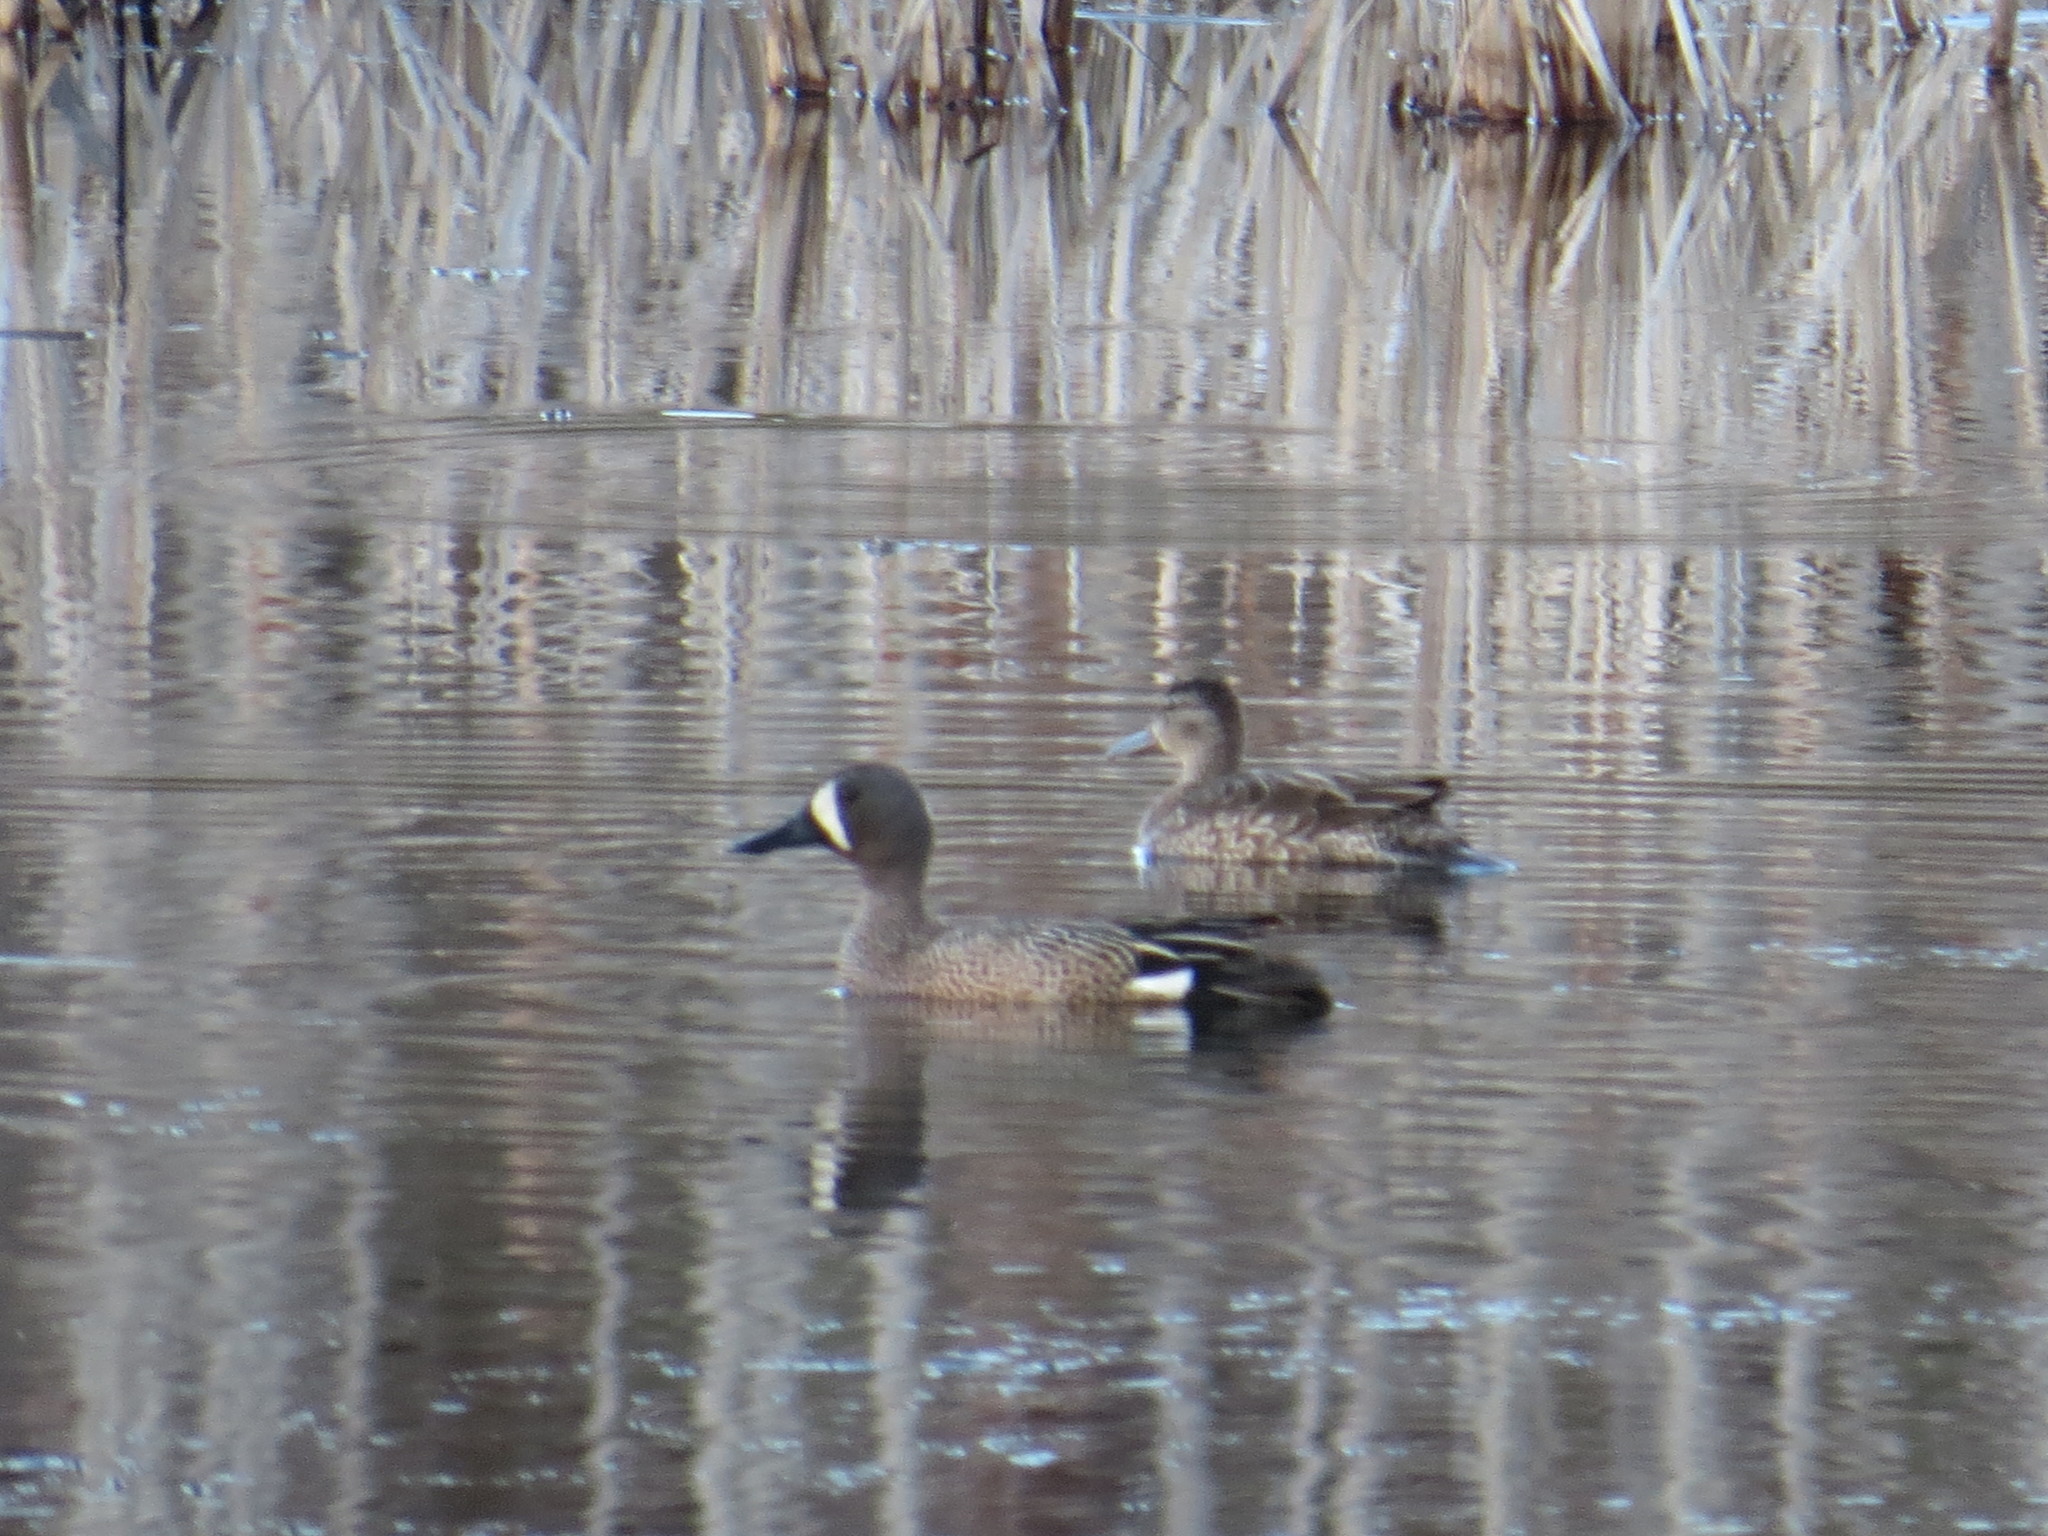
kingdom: Animalia
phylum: Chordata
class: Aves
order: Anseriformes
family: Anatidae
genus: Spatula
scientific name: Spatula discors
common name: Blue-winged teal
